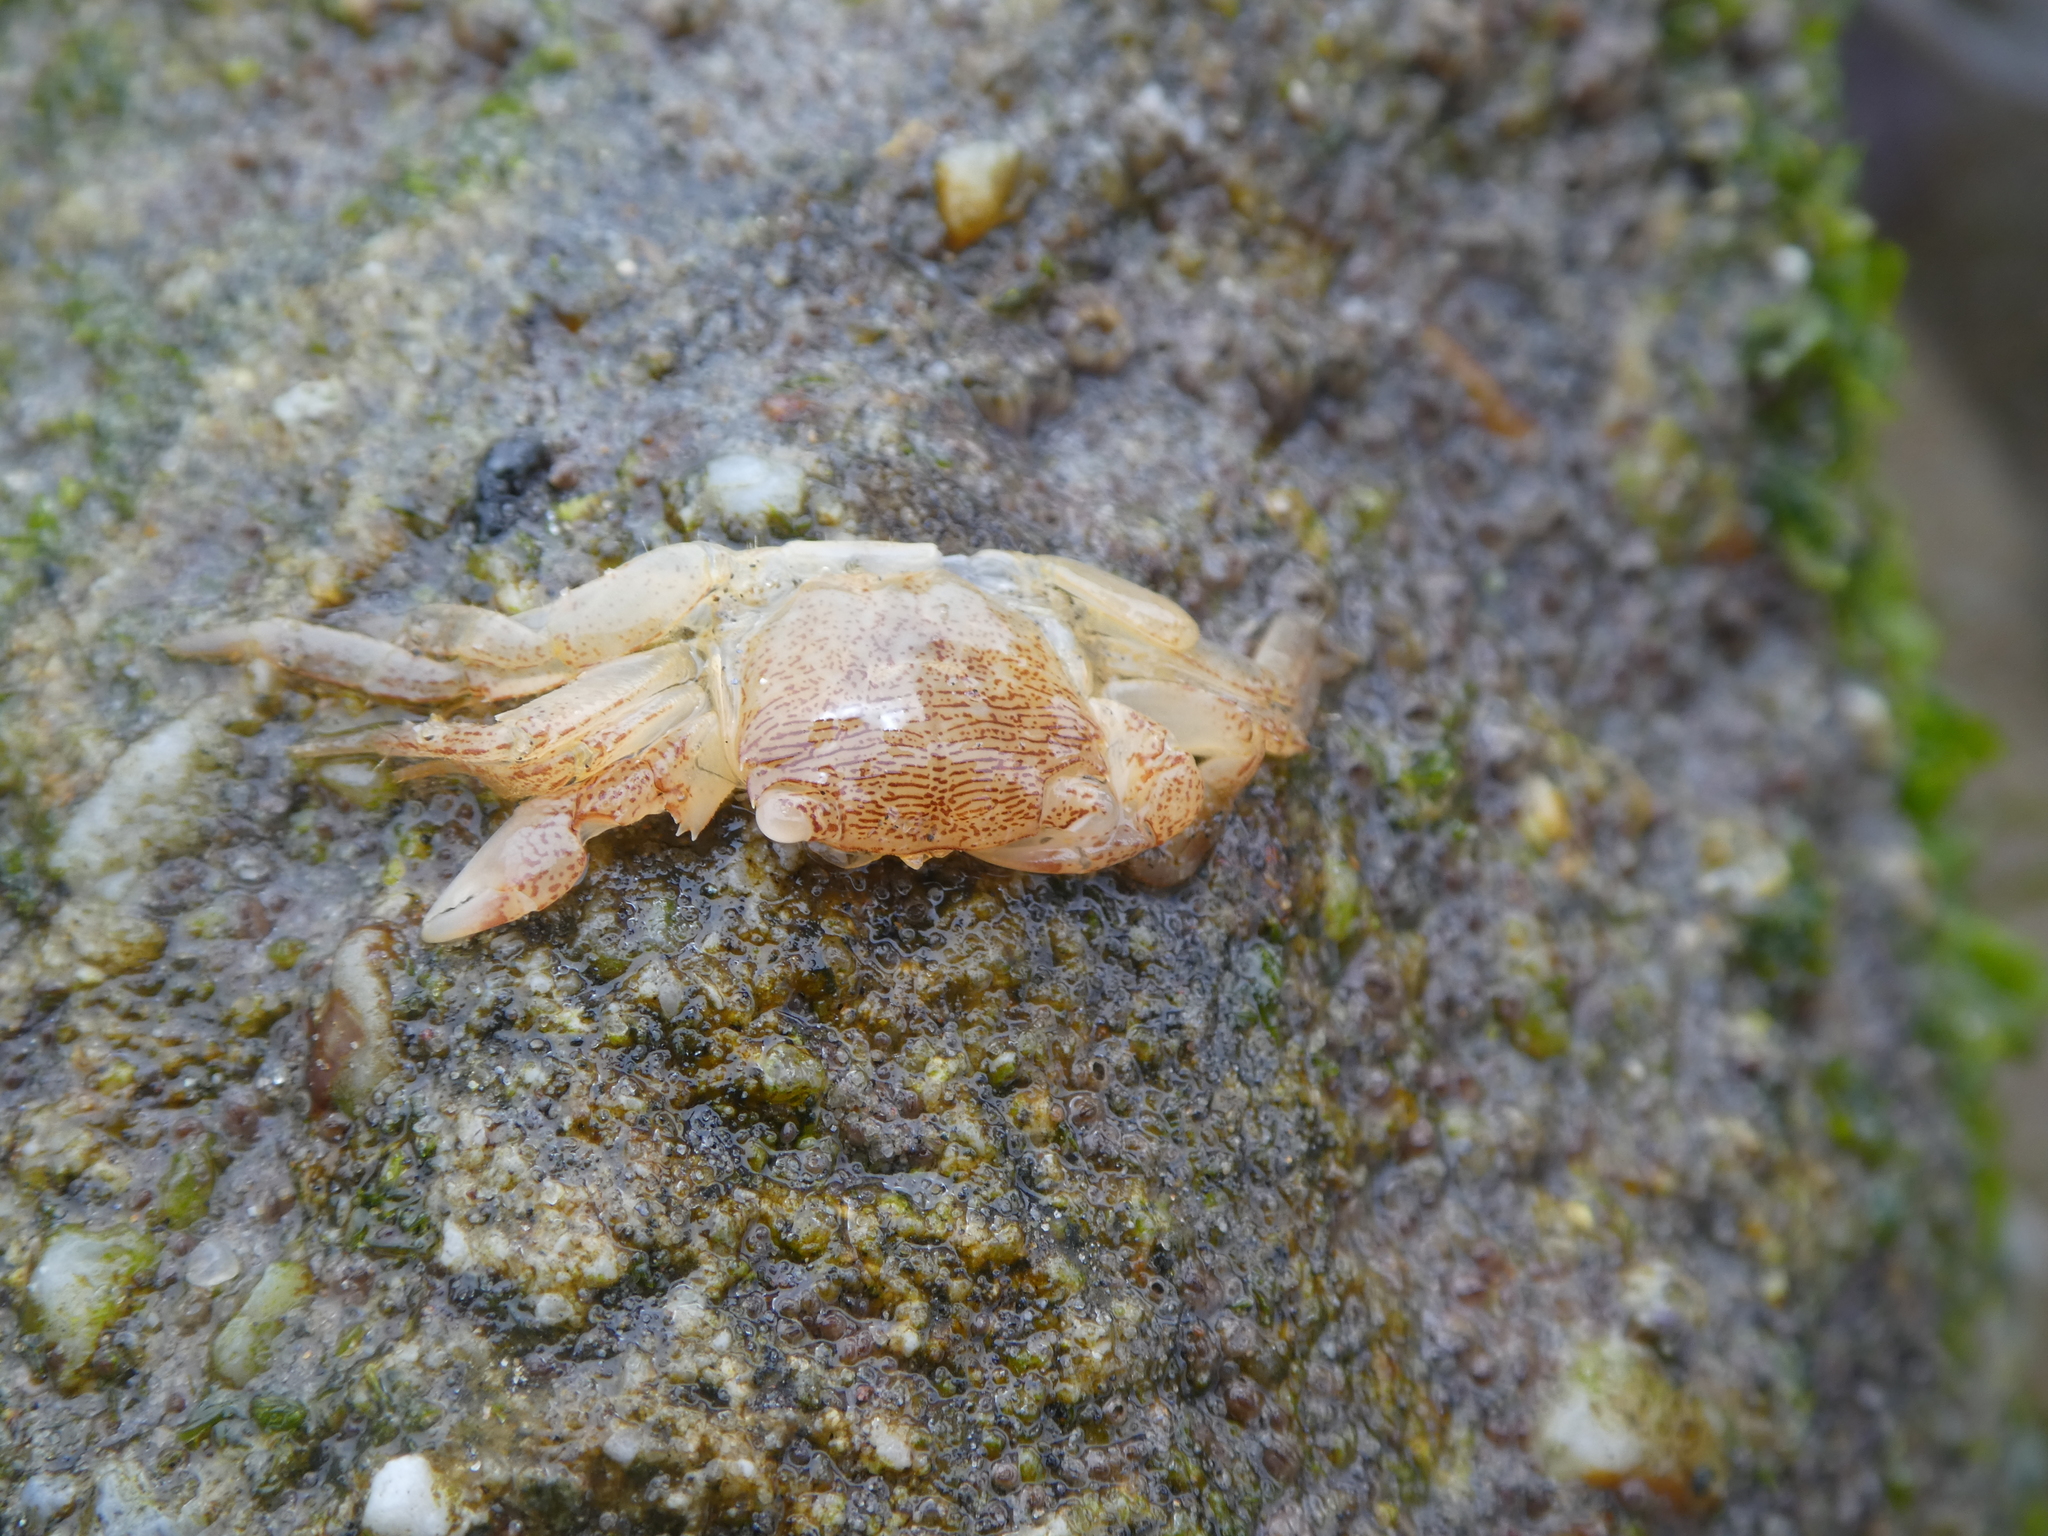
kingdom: Animalia
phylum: Arthropoda
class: Malacostraca
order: Decapoda
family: Grapsidae
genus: Pachygrapsus
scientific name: Pachygrapsus crassipes
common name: Striped shore crab
